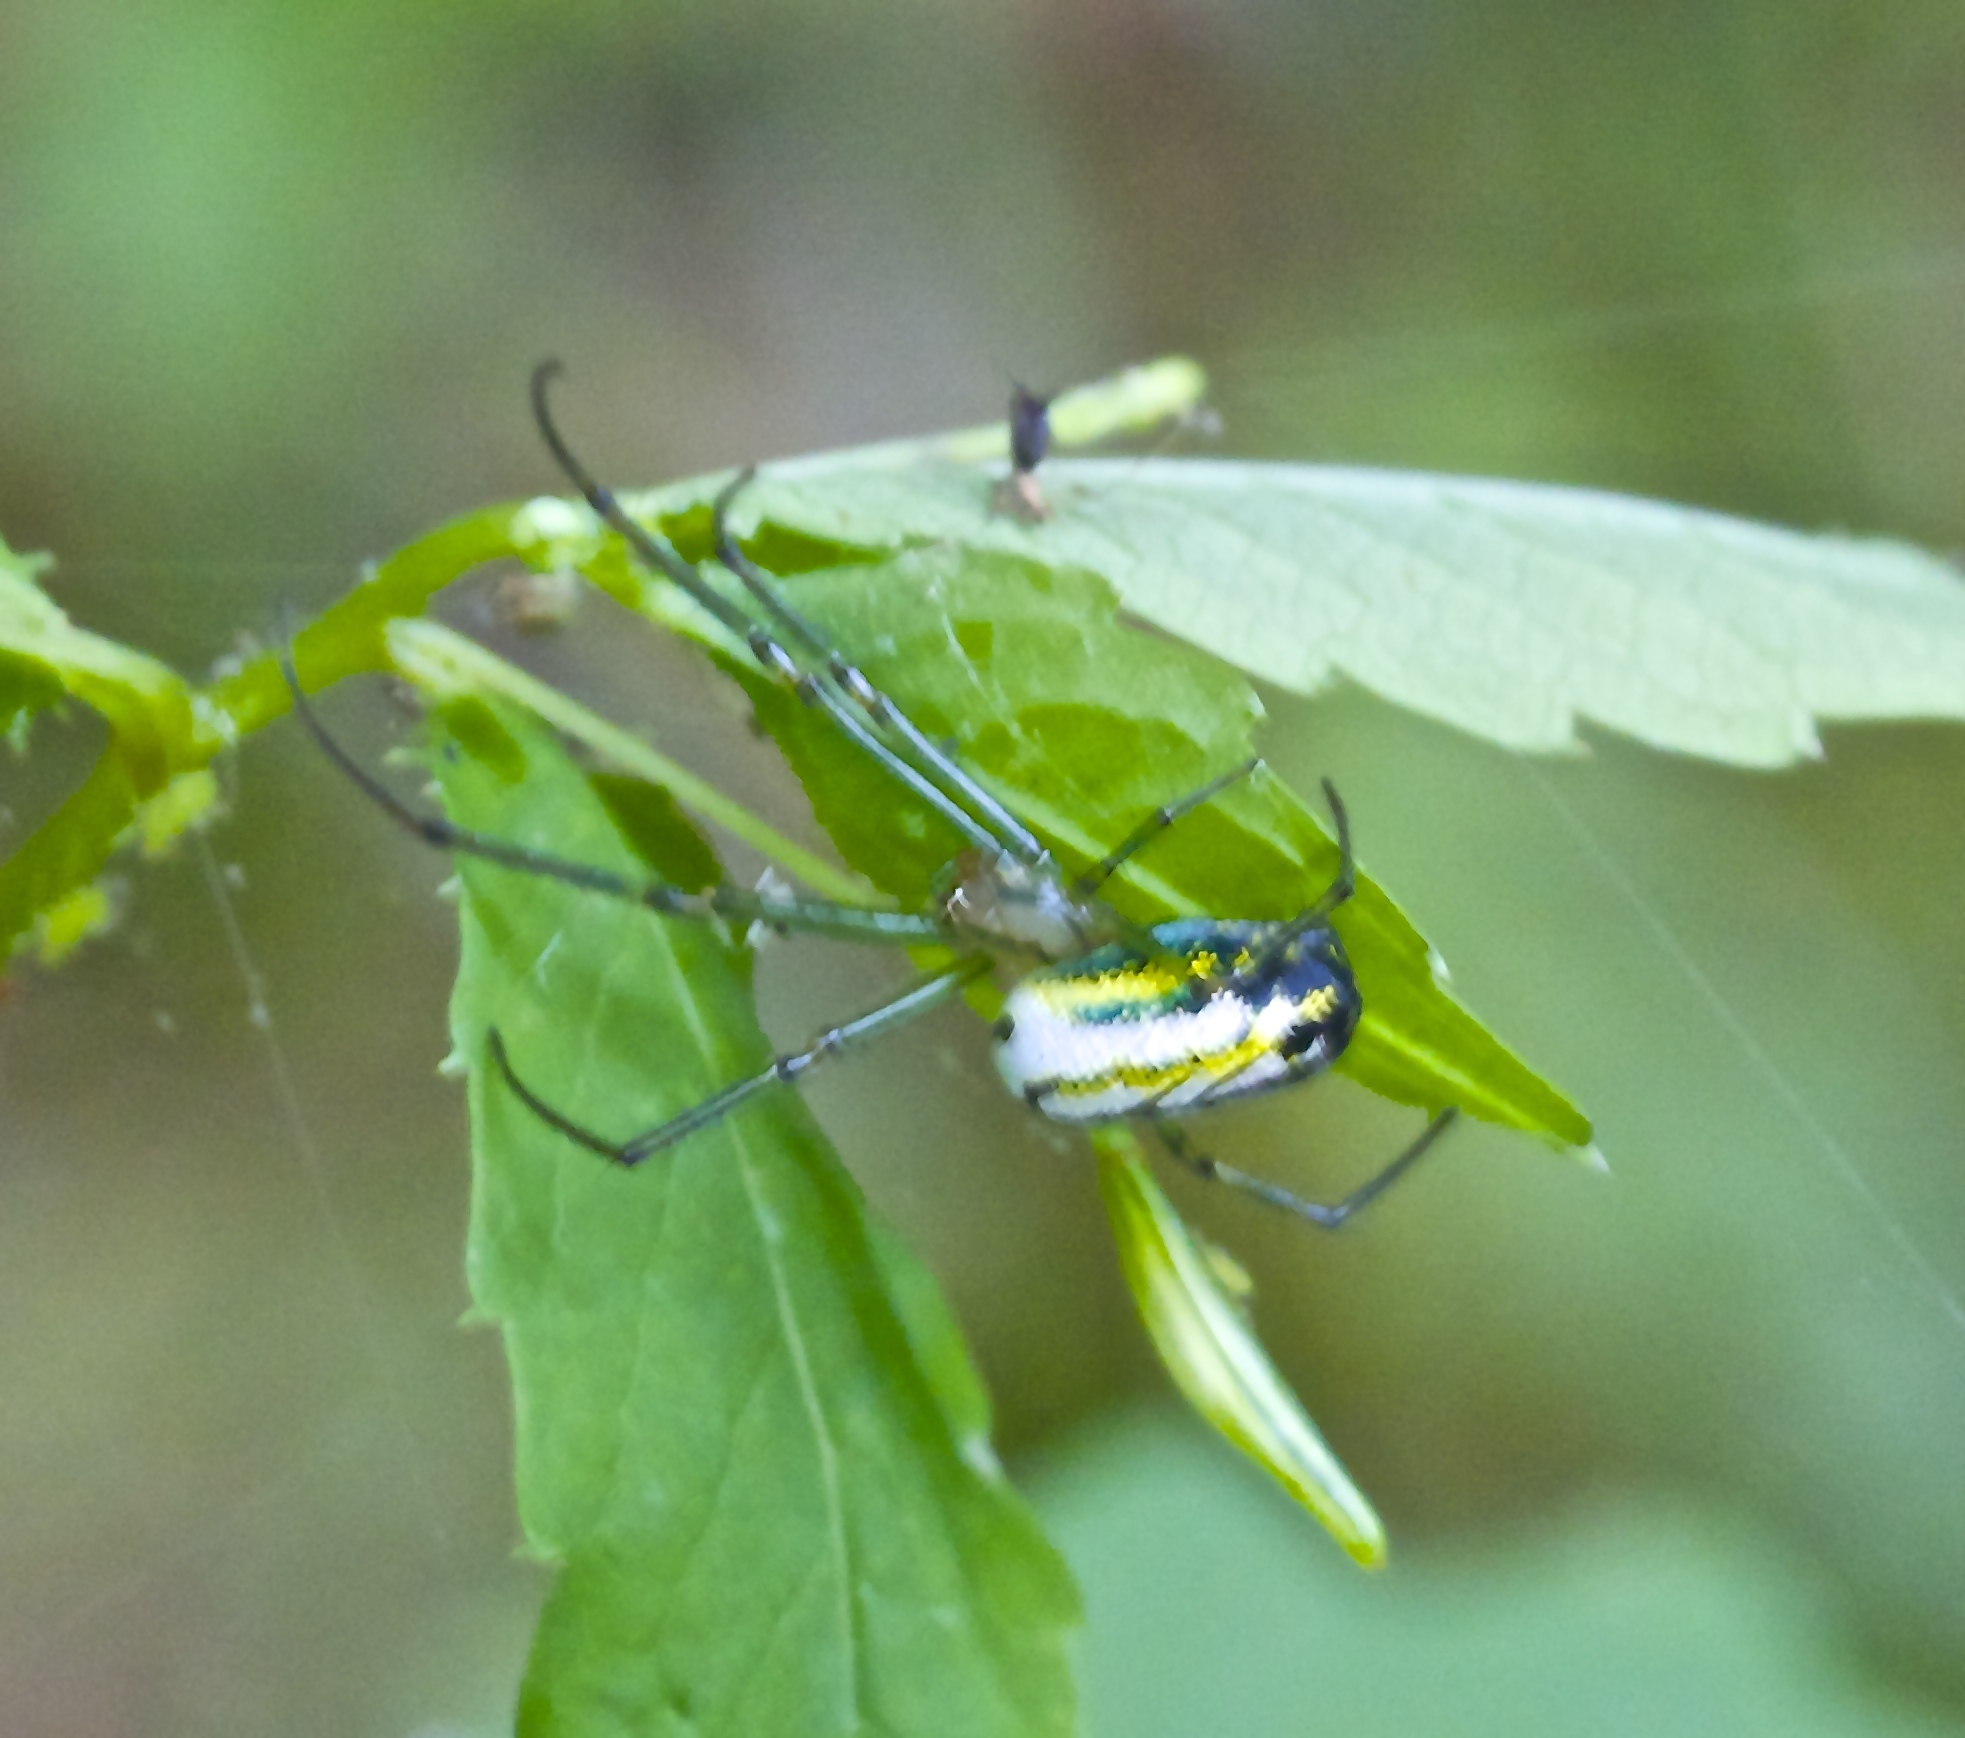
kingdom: Animalia
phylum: Arthropoda
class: Arachnida
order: Araneae
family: Tetragnathidae
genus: Leucauge
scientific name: Leucauge venusta
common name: Longjawed orb weavers
